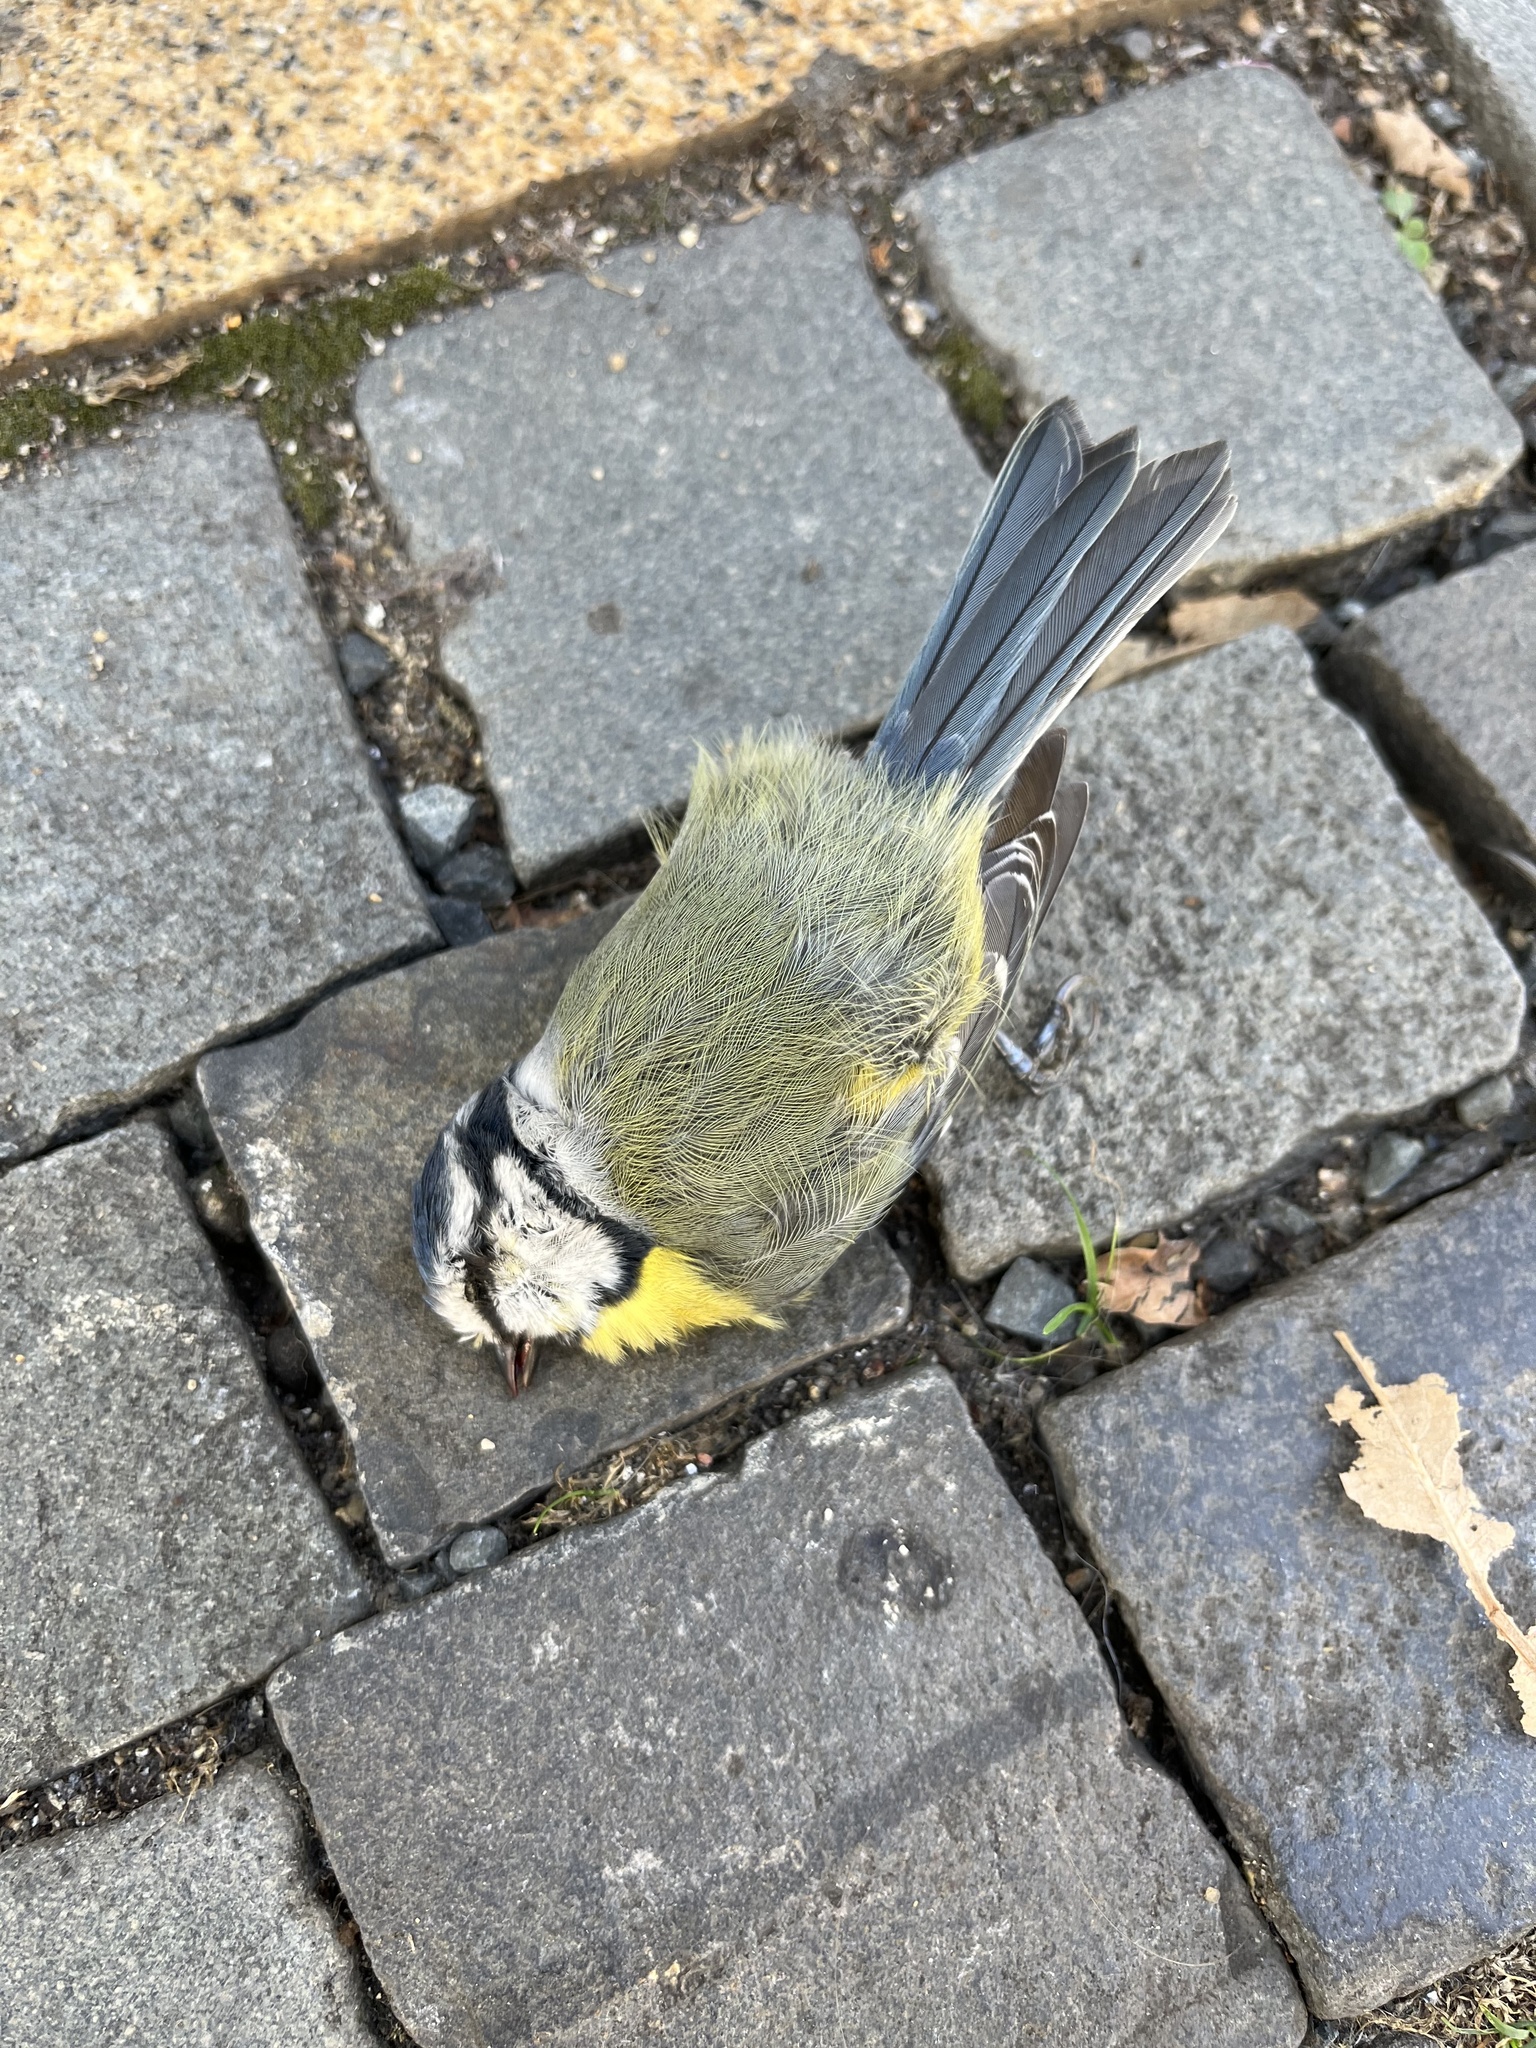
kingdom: Animalia
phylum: Chordata
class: Aves
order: Passeriformes
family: Paridae
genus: Cyanistes
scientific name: Cyanistes caeruleus
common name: Eurasian blue tit
